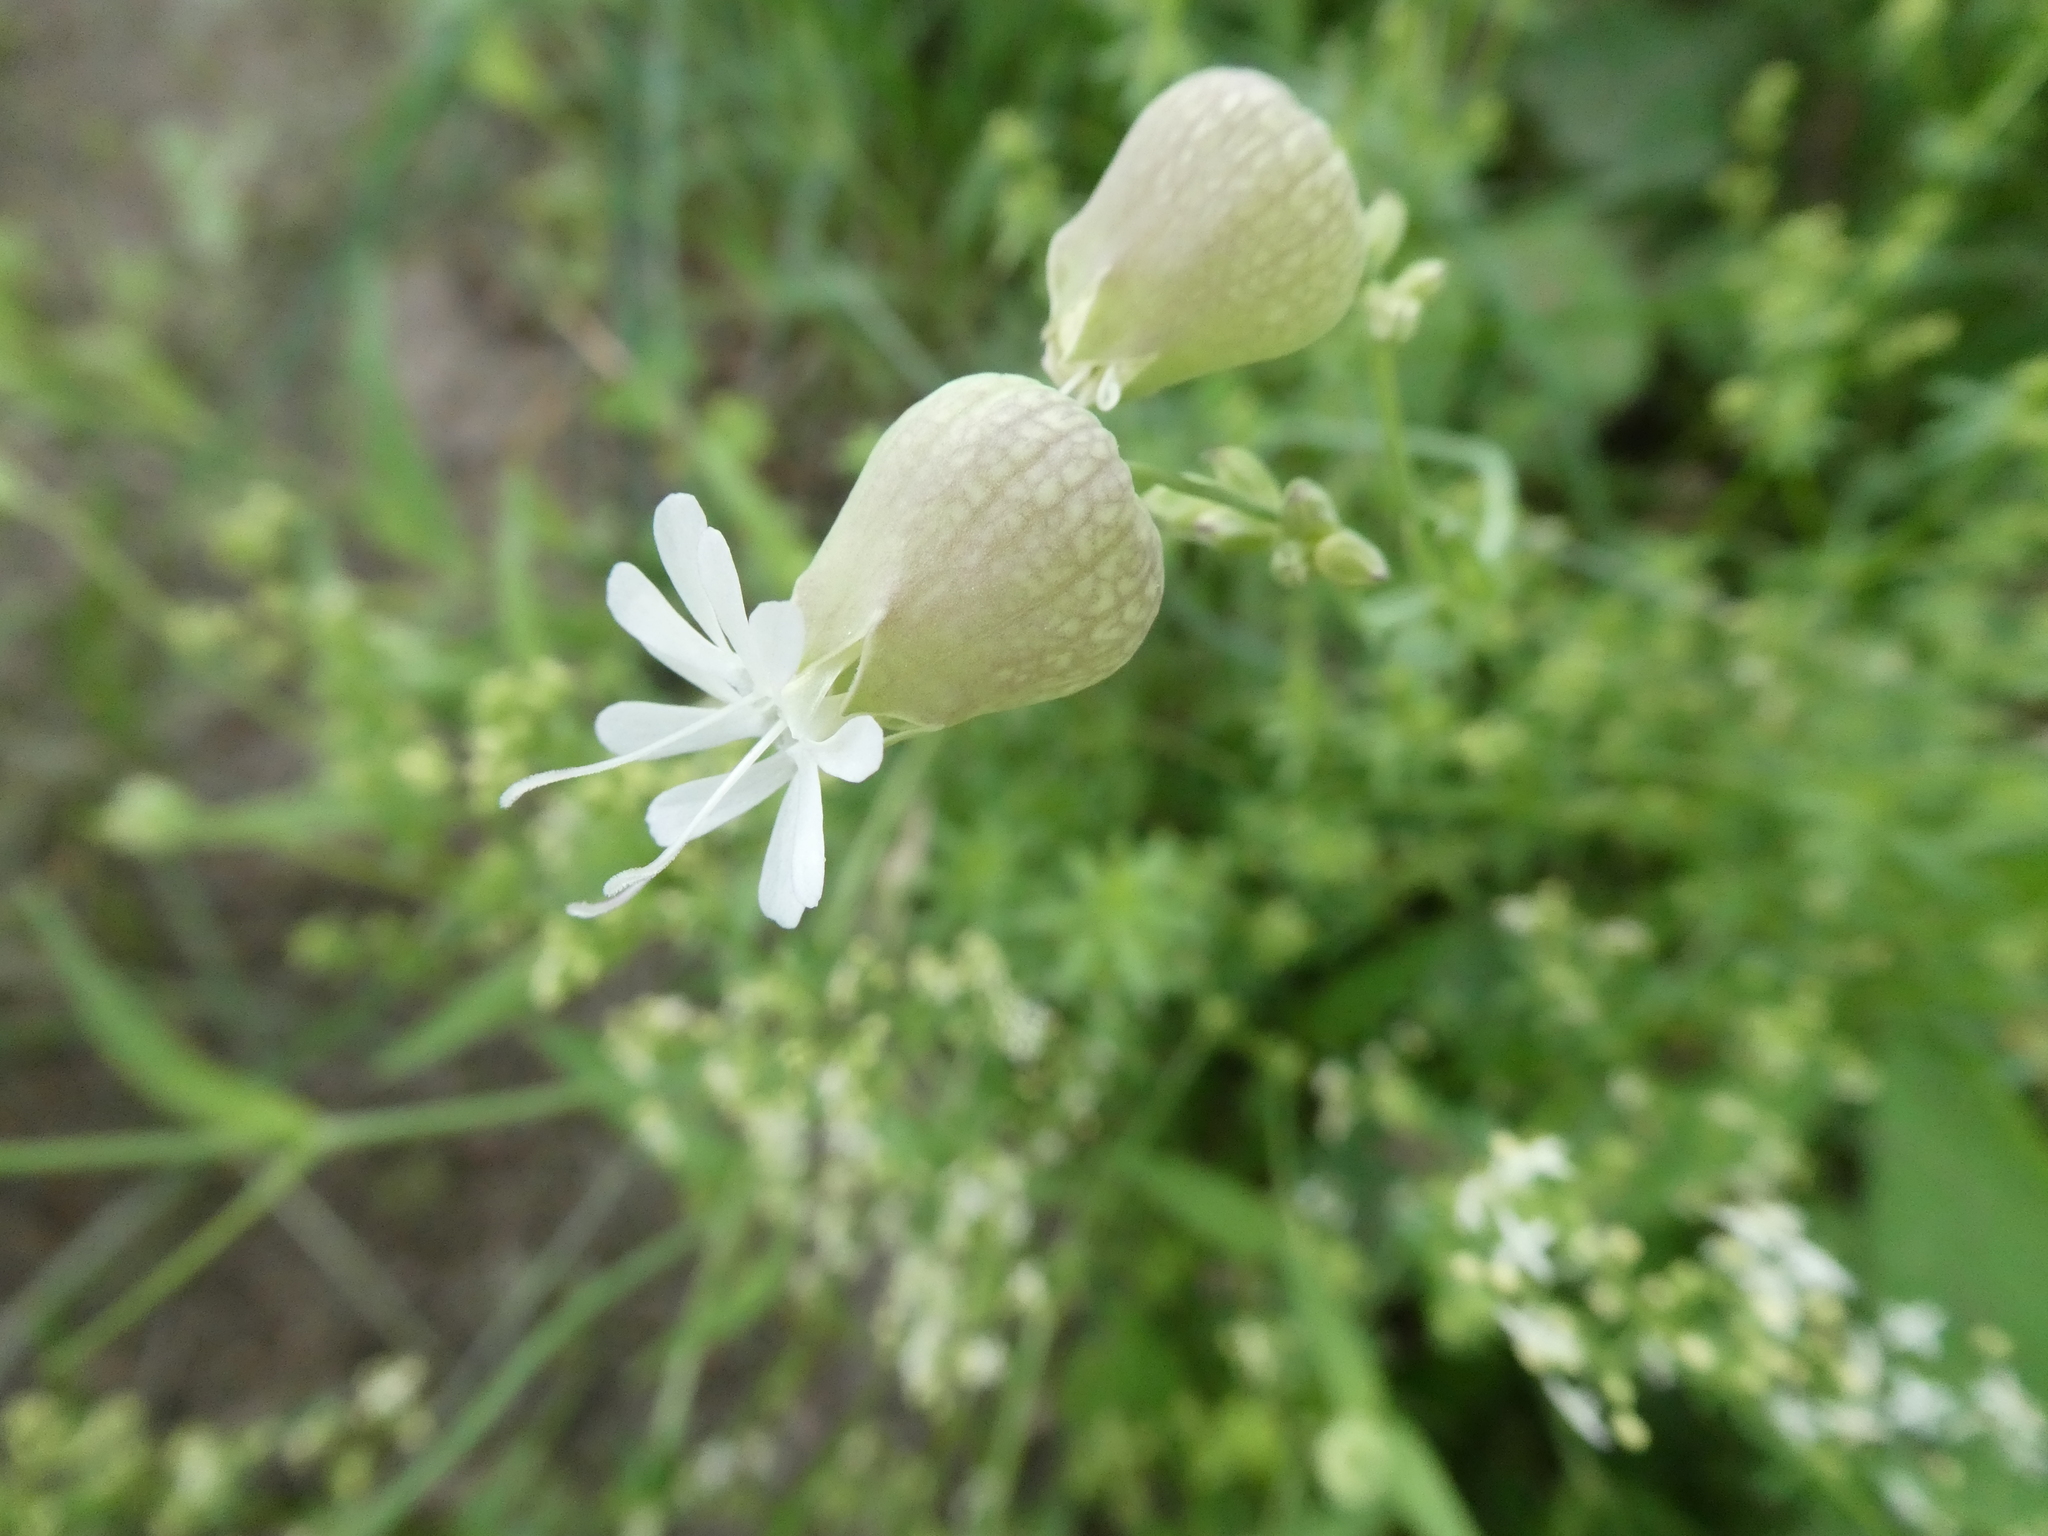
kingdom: Plantae
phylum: Tracheophyta
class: Magnoliopsida
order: Caryophyllales
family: Caryophyllaceae
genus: Silene
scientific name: Silene vulgaris
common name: Bladder campion
